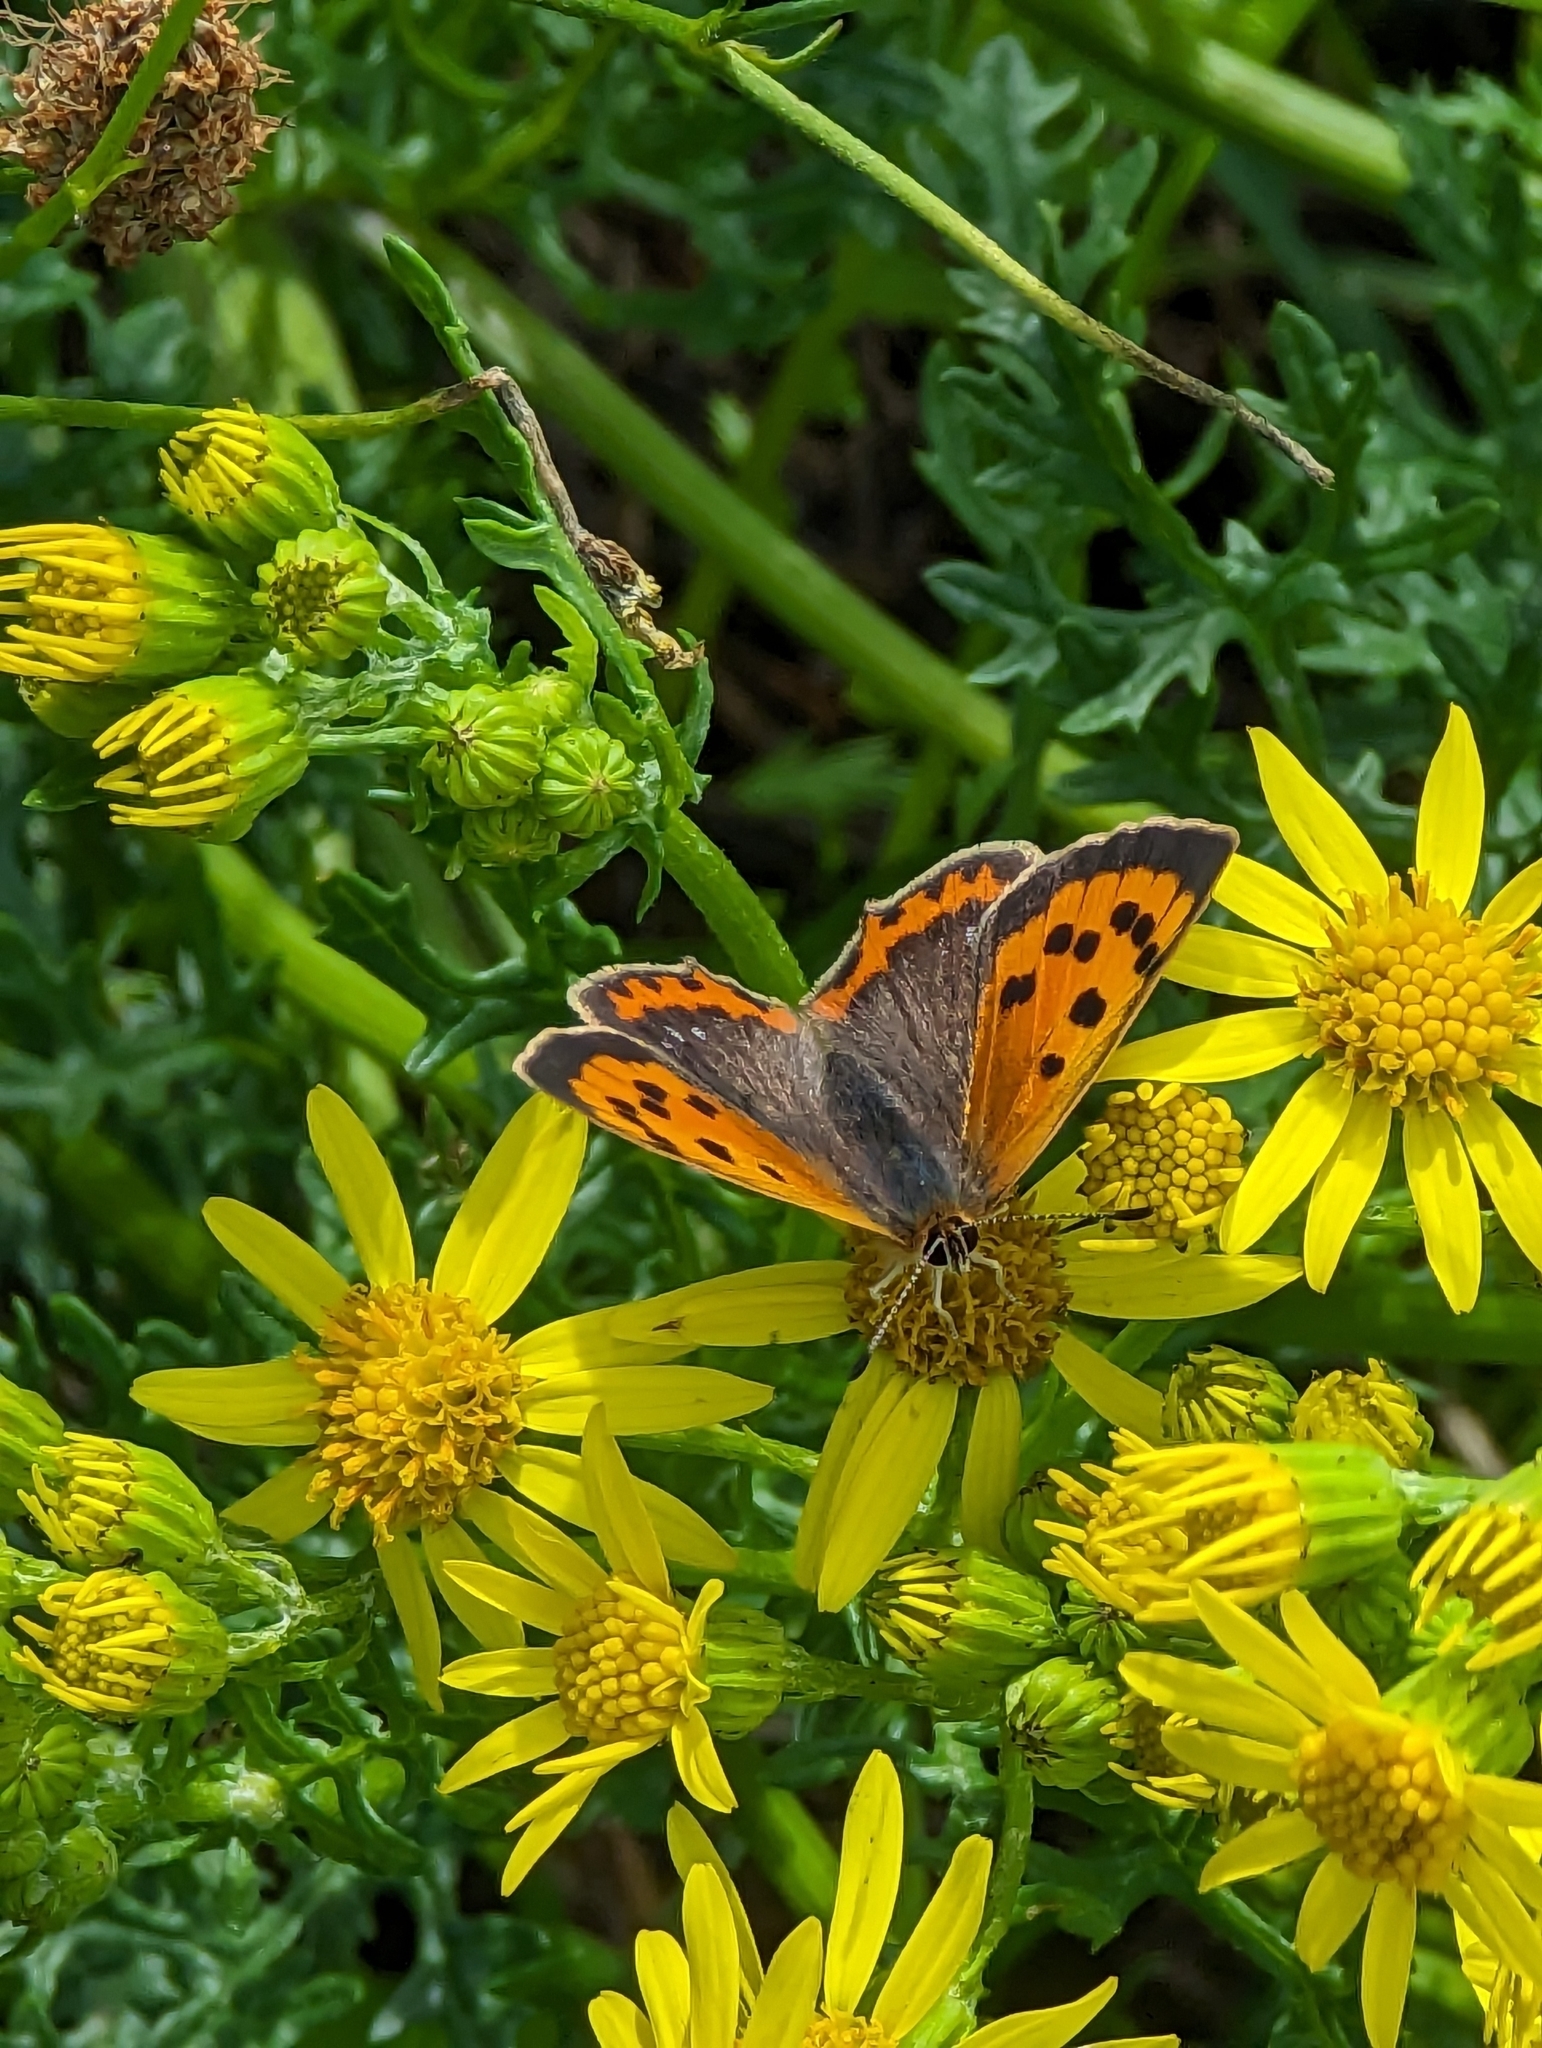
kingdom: Animalia
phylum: Arthropoda
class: Insecta
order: Lepidoptera
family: Lycaenidae
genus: Lycaena
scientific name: Lycaena phlaeas
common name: Small copper
